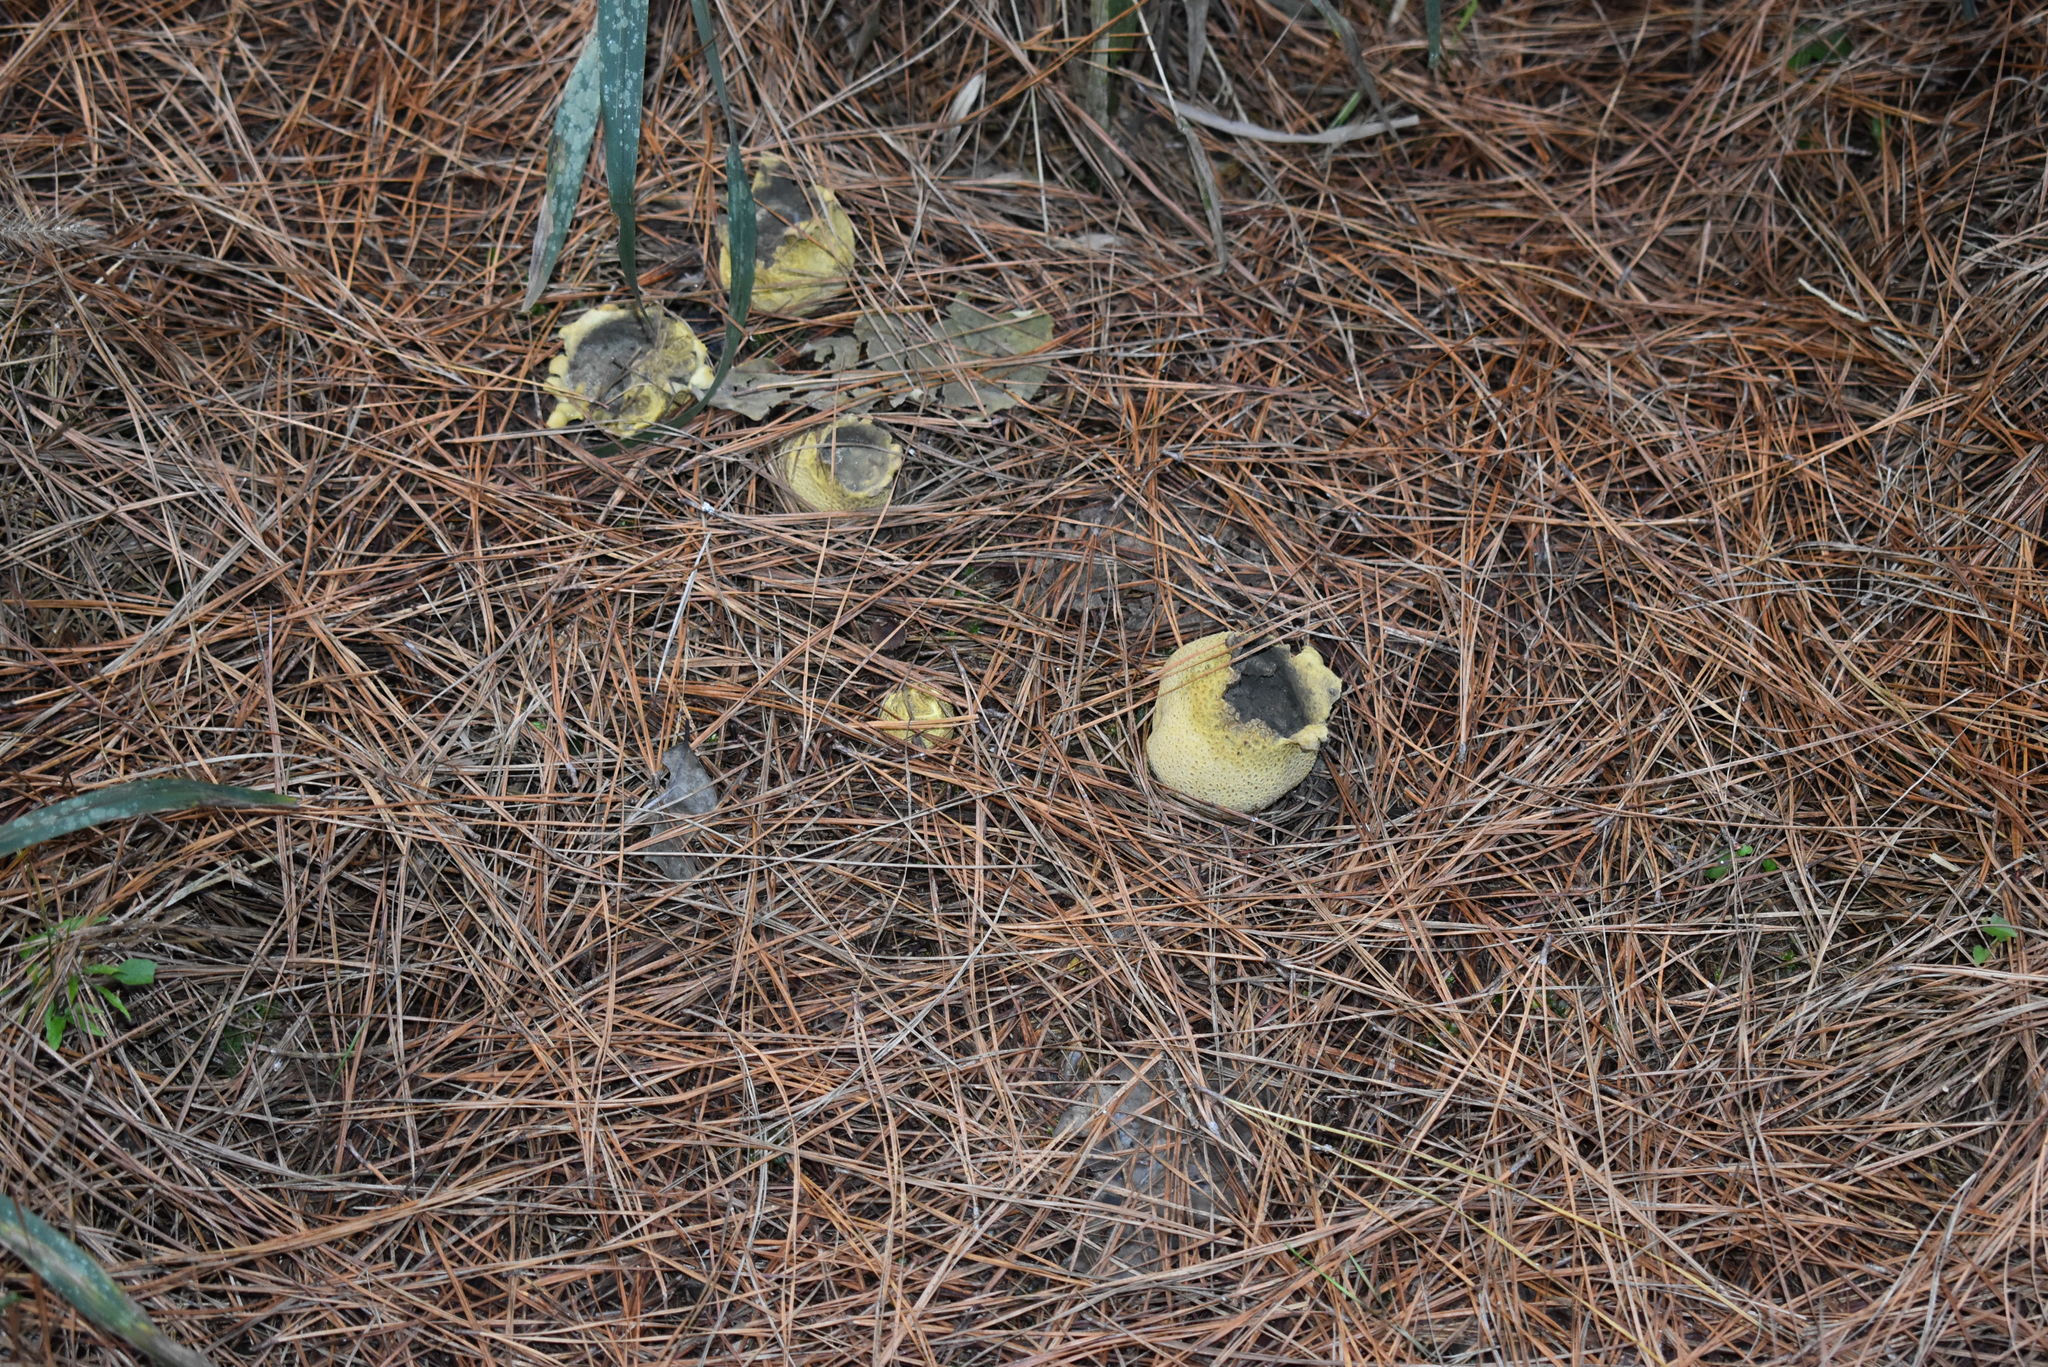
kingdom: Fungi
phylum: Basidiomycota
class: Agaricomycetes
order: Boletales
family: Sclerodermataceae
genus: Scleroderma
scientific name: Scleroderma citrinum
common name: Common earthball
